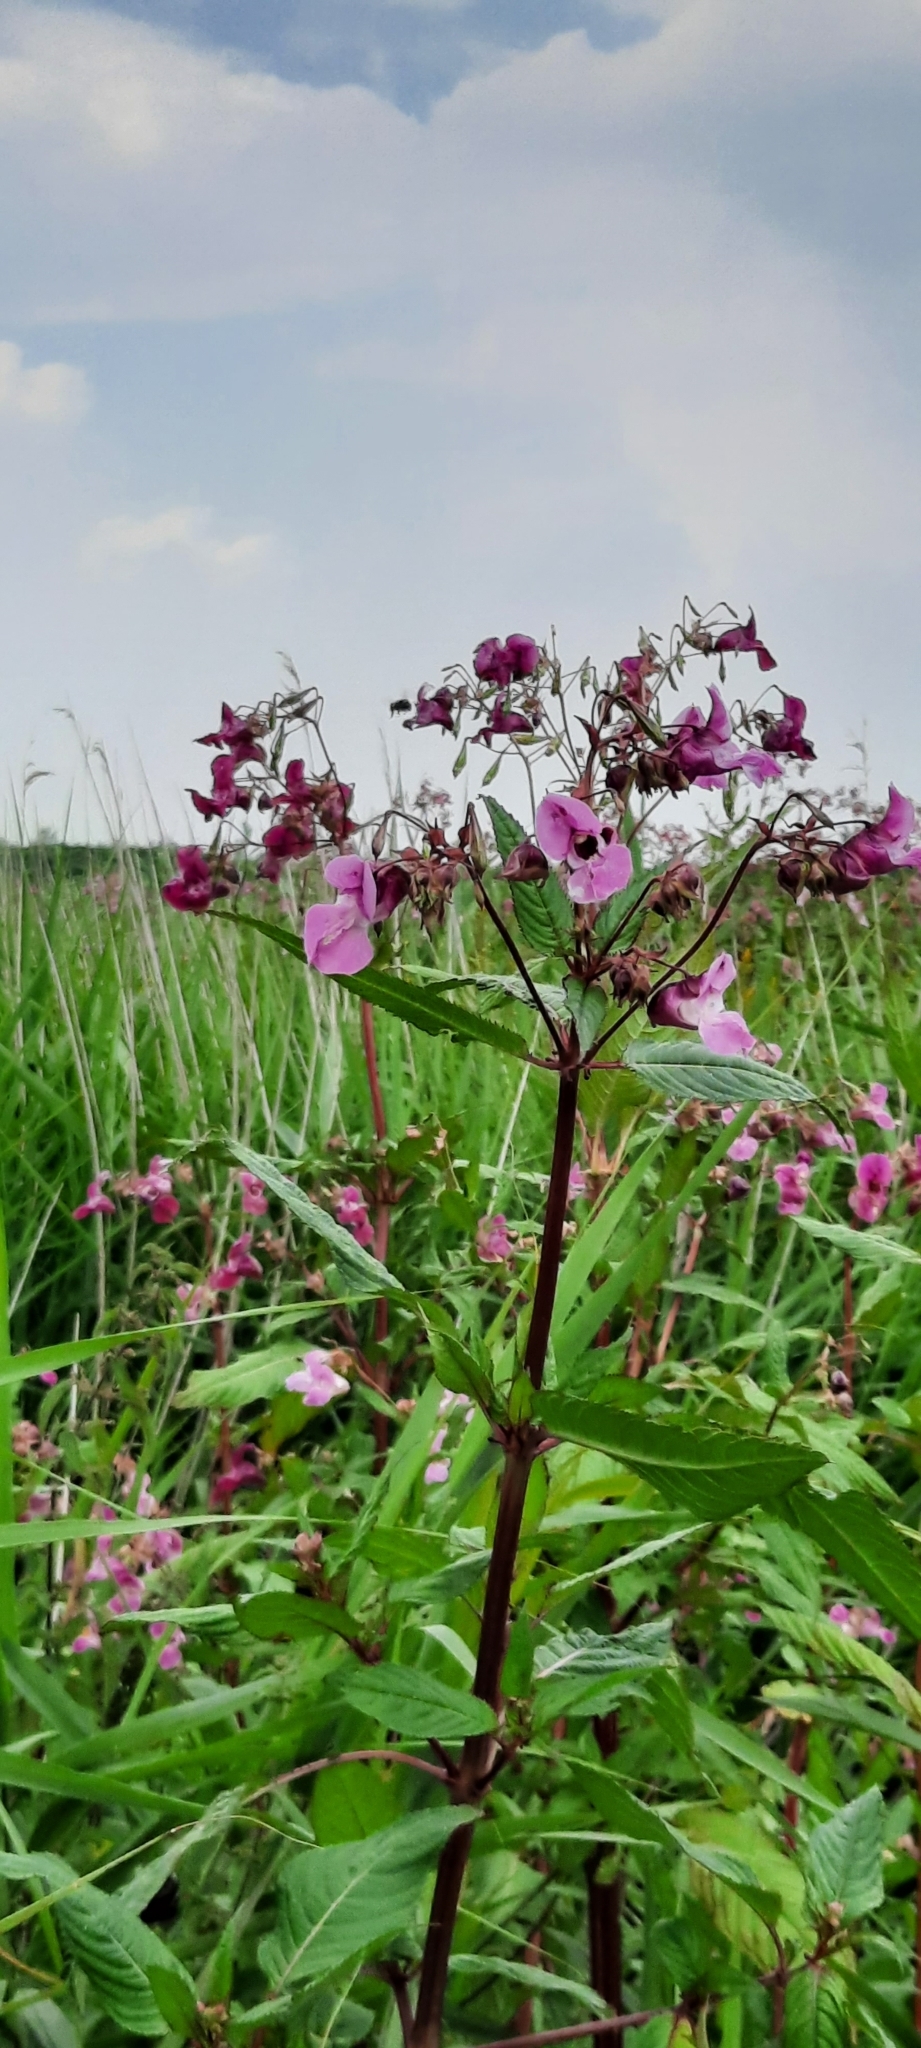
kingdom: Plantae
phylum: Tracheophyta
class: Magnoliopsida
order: Ericales
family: Balsaminaceae
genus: Impatiens
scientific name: Impatiens glandulifera
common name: Himalayan balsam
